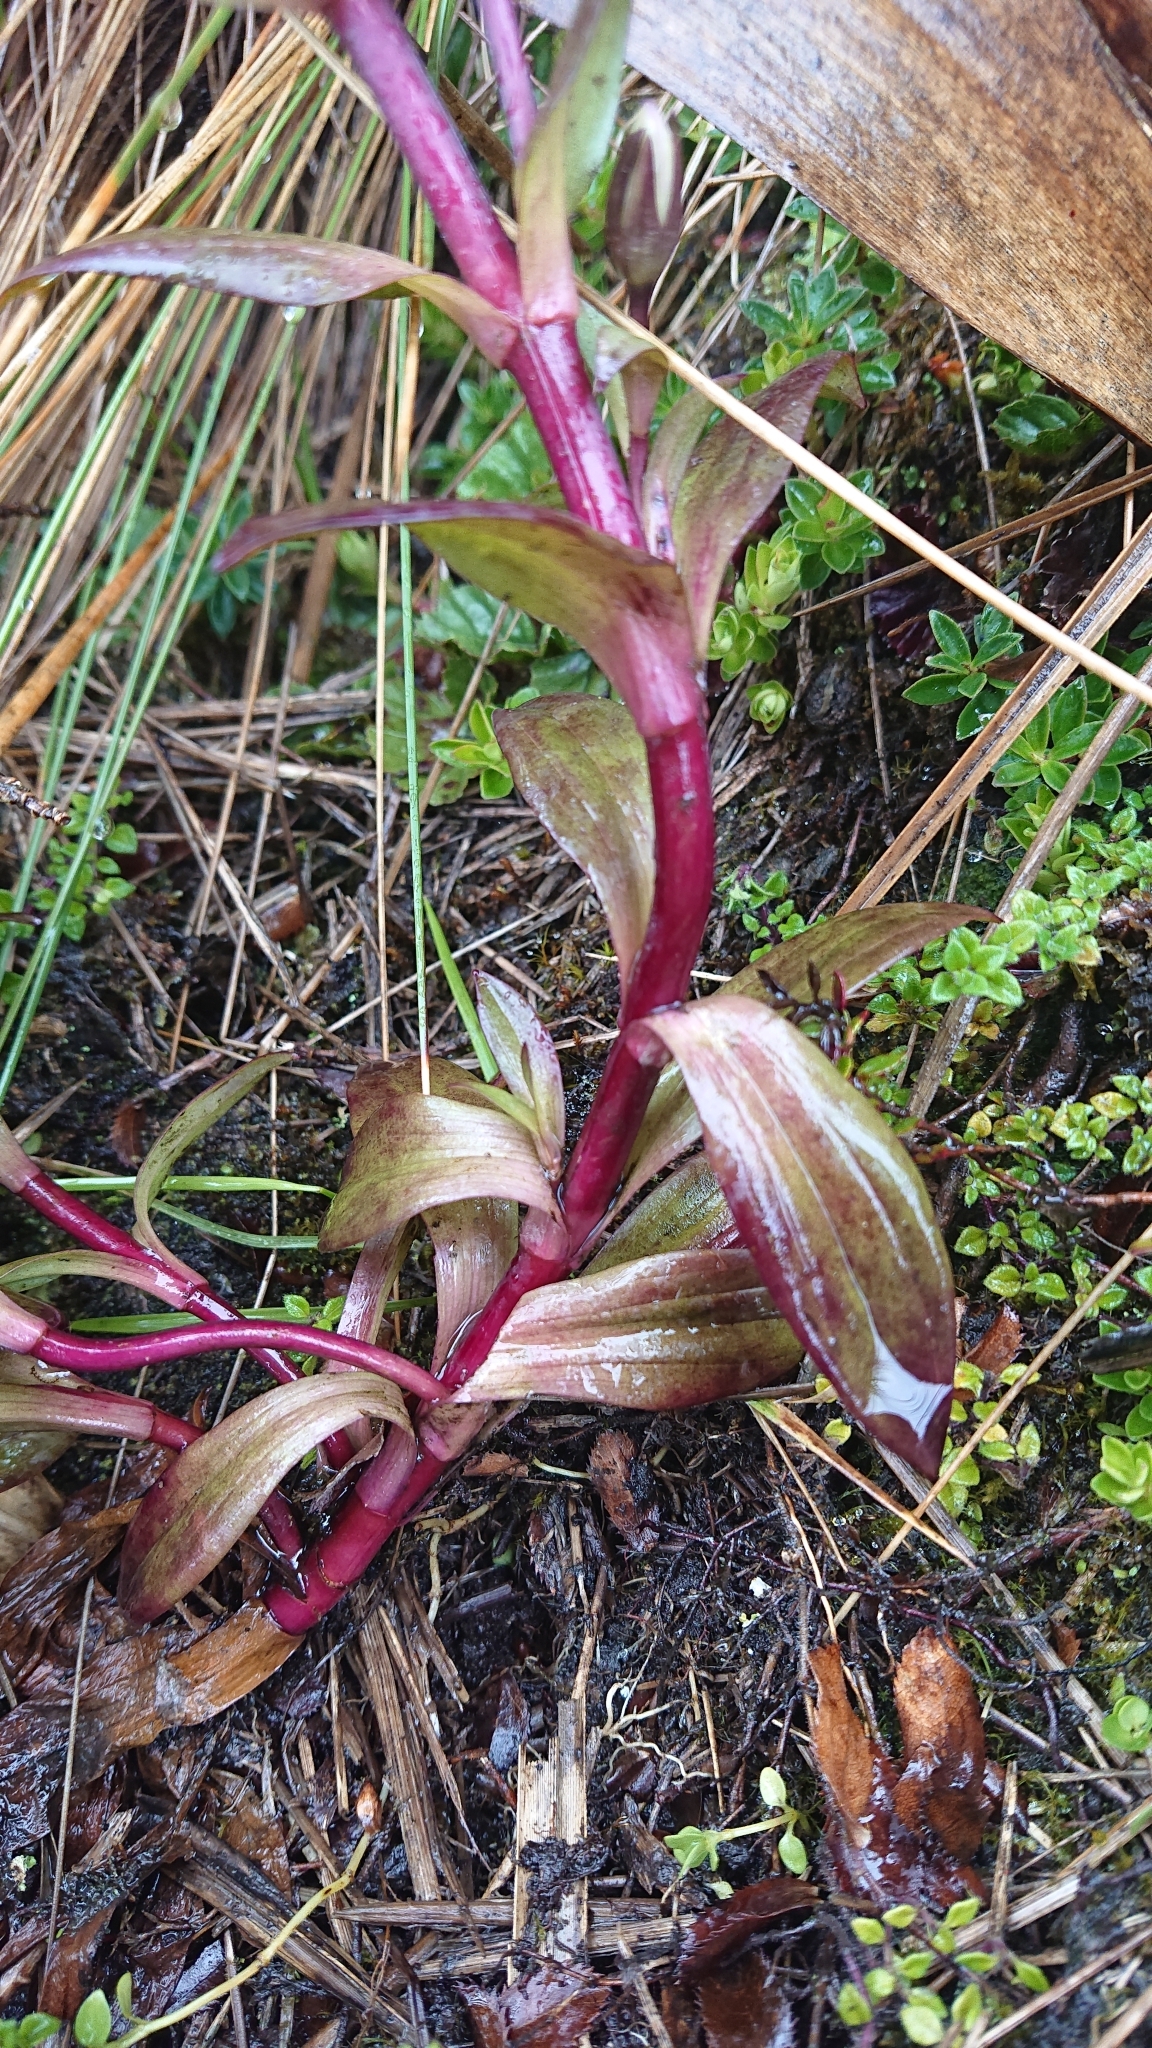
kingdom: Plantae
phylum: Tracheophyta
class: Magnoliopsida
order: Gentianales
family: Gentianaceae
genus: Gentianella
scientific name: Gentianella foliosa
